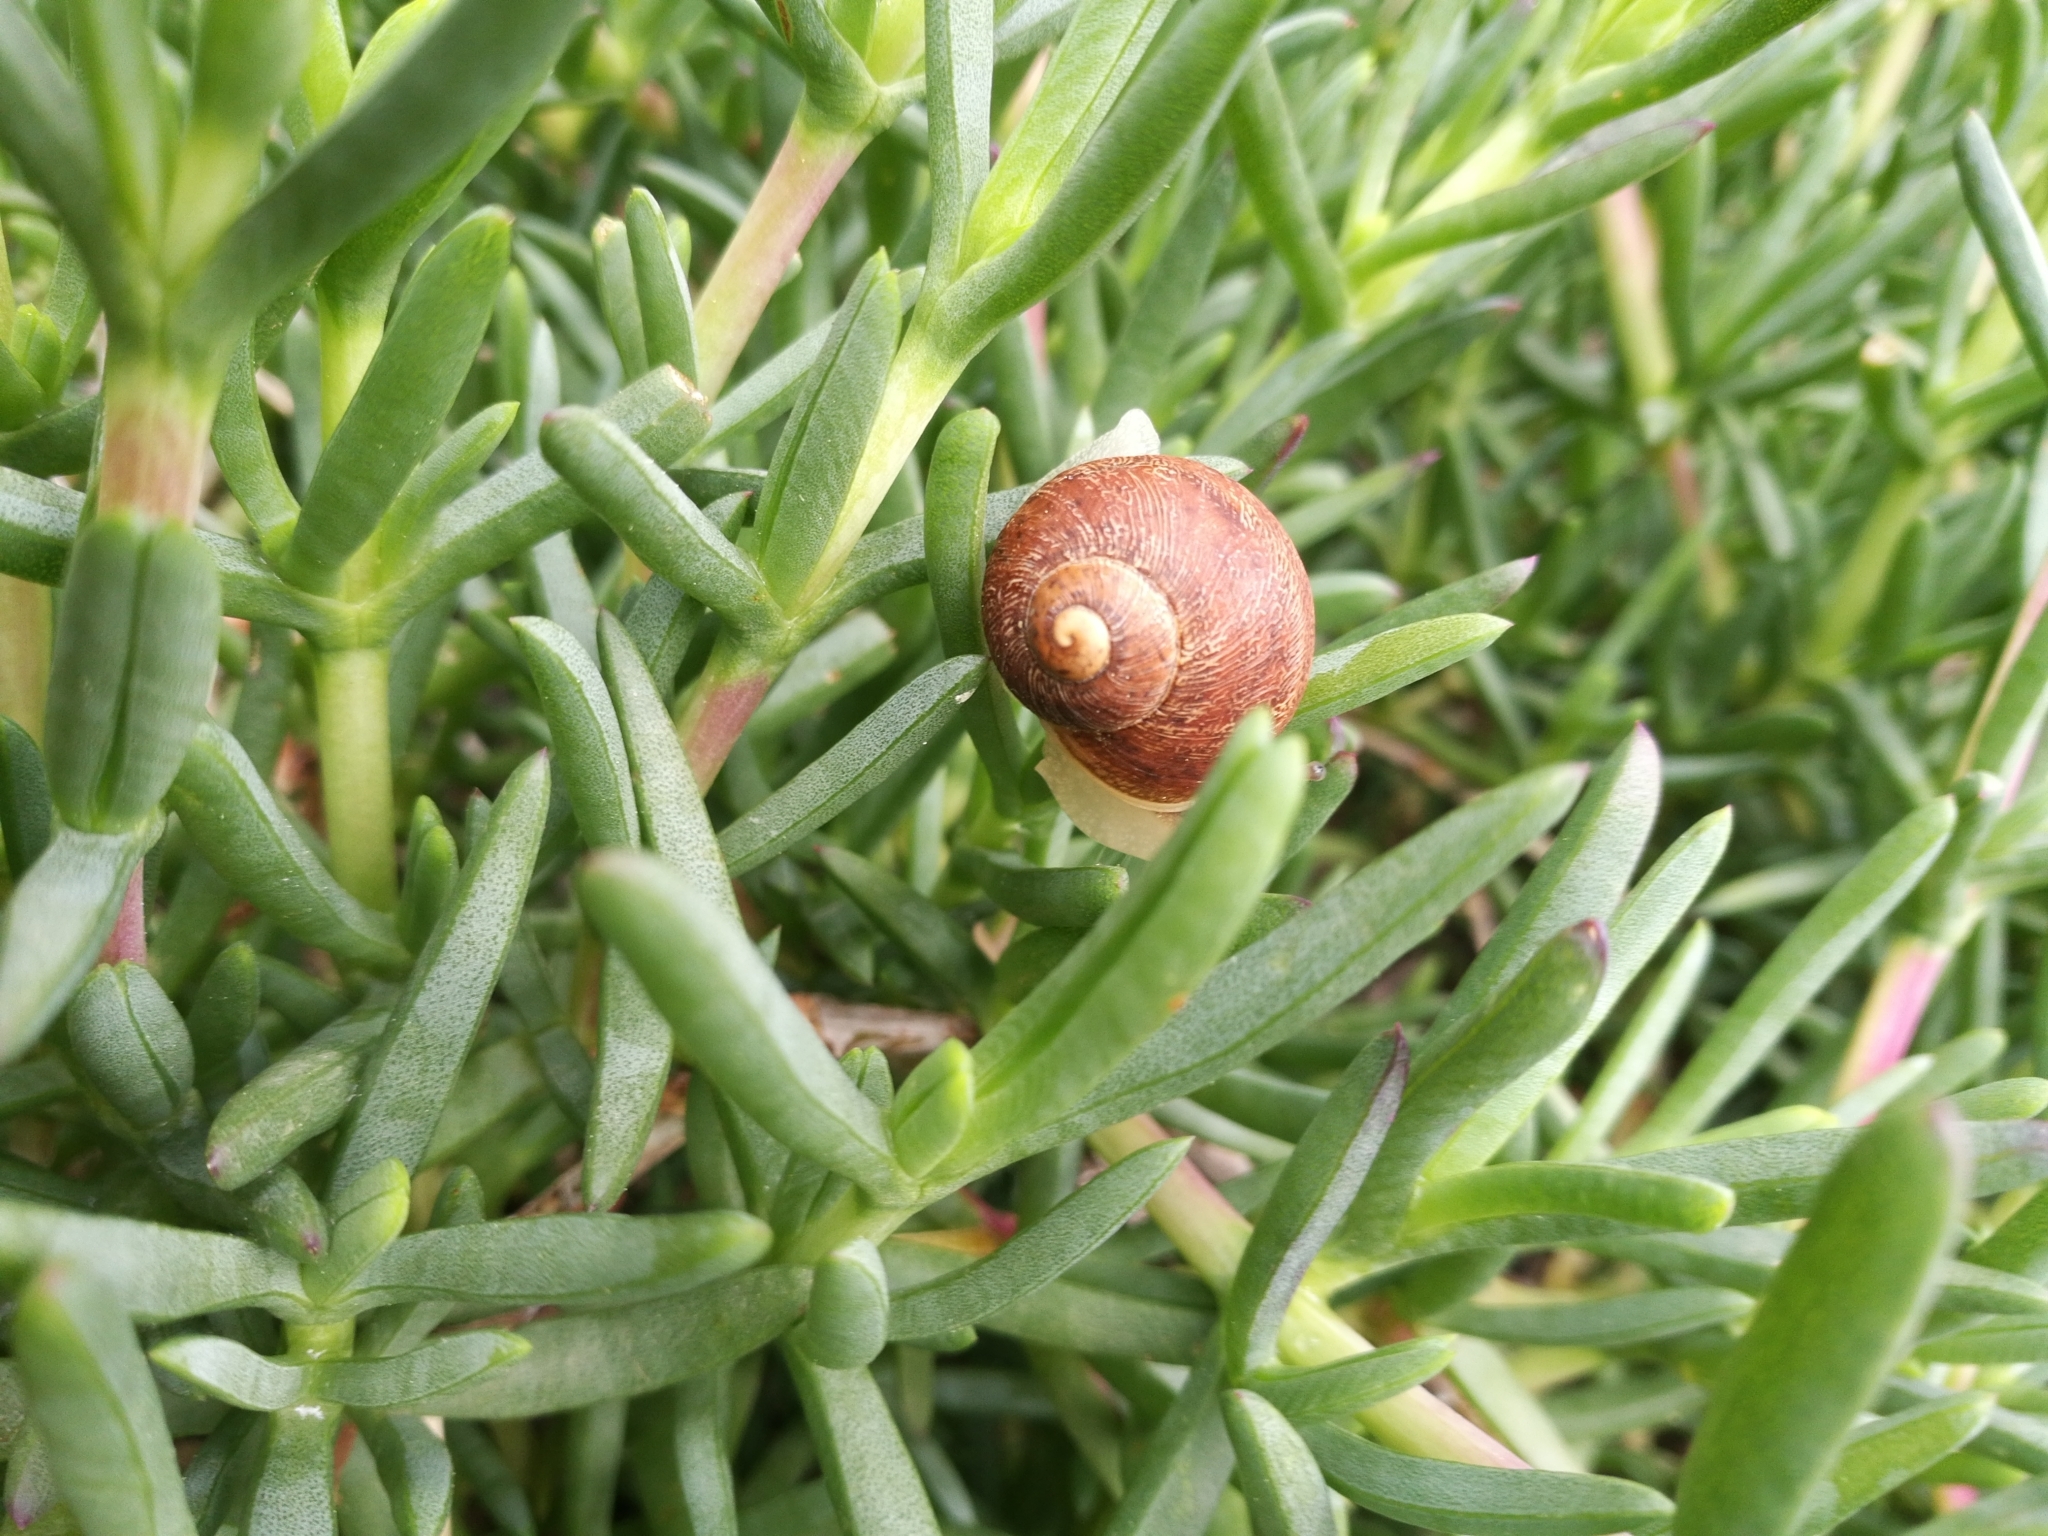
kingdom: Animalia
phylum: Mollusca
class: Gastropoda
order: Stylommatophora
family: Helicidae
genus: Cornu
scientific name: Cornu aspersum
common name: Brown garden snail
